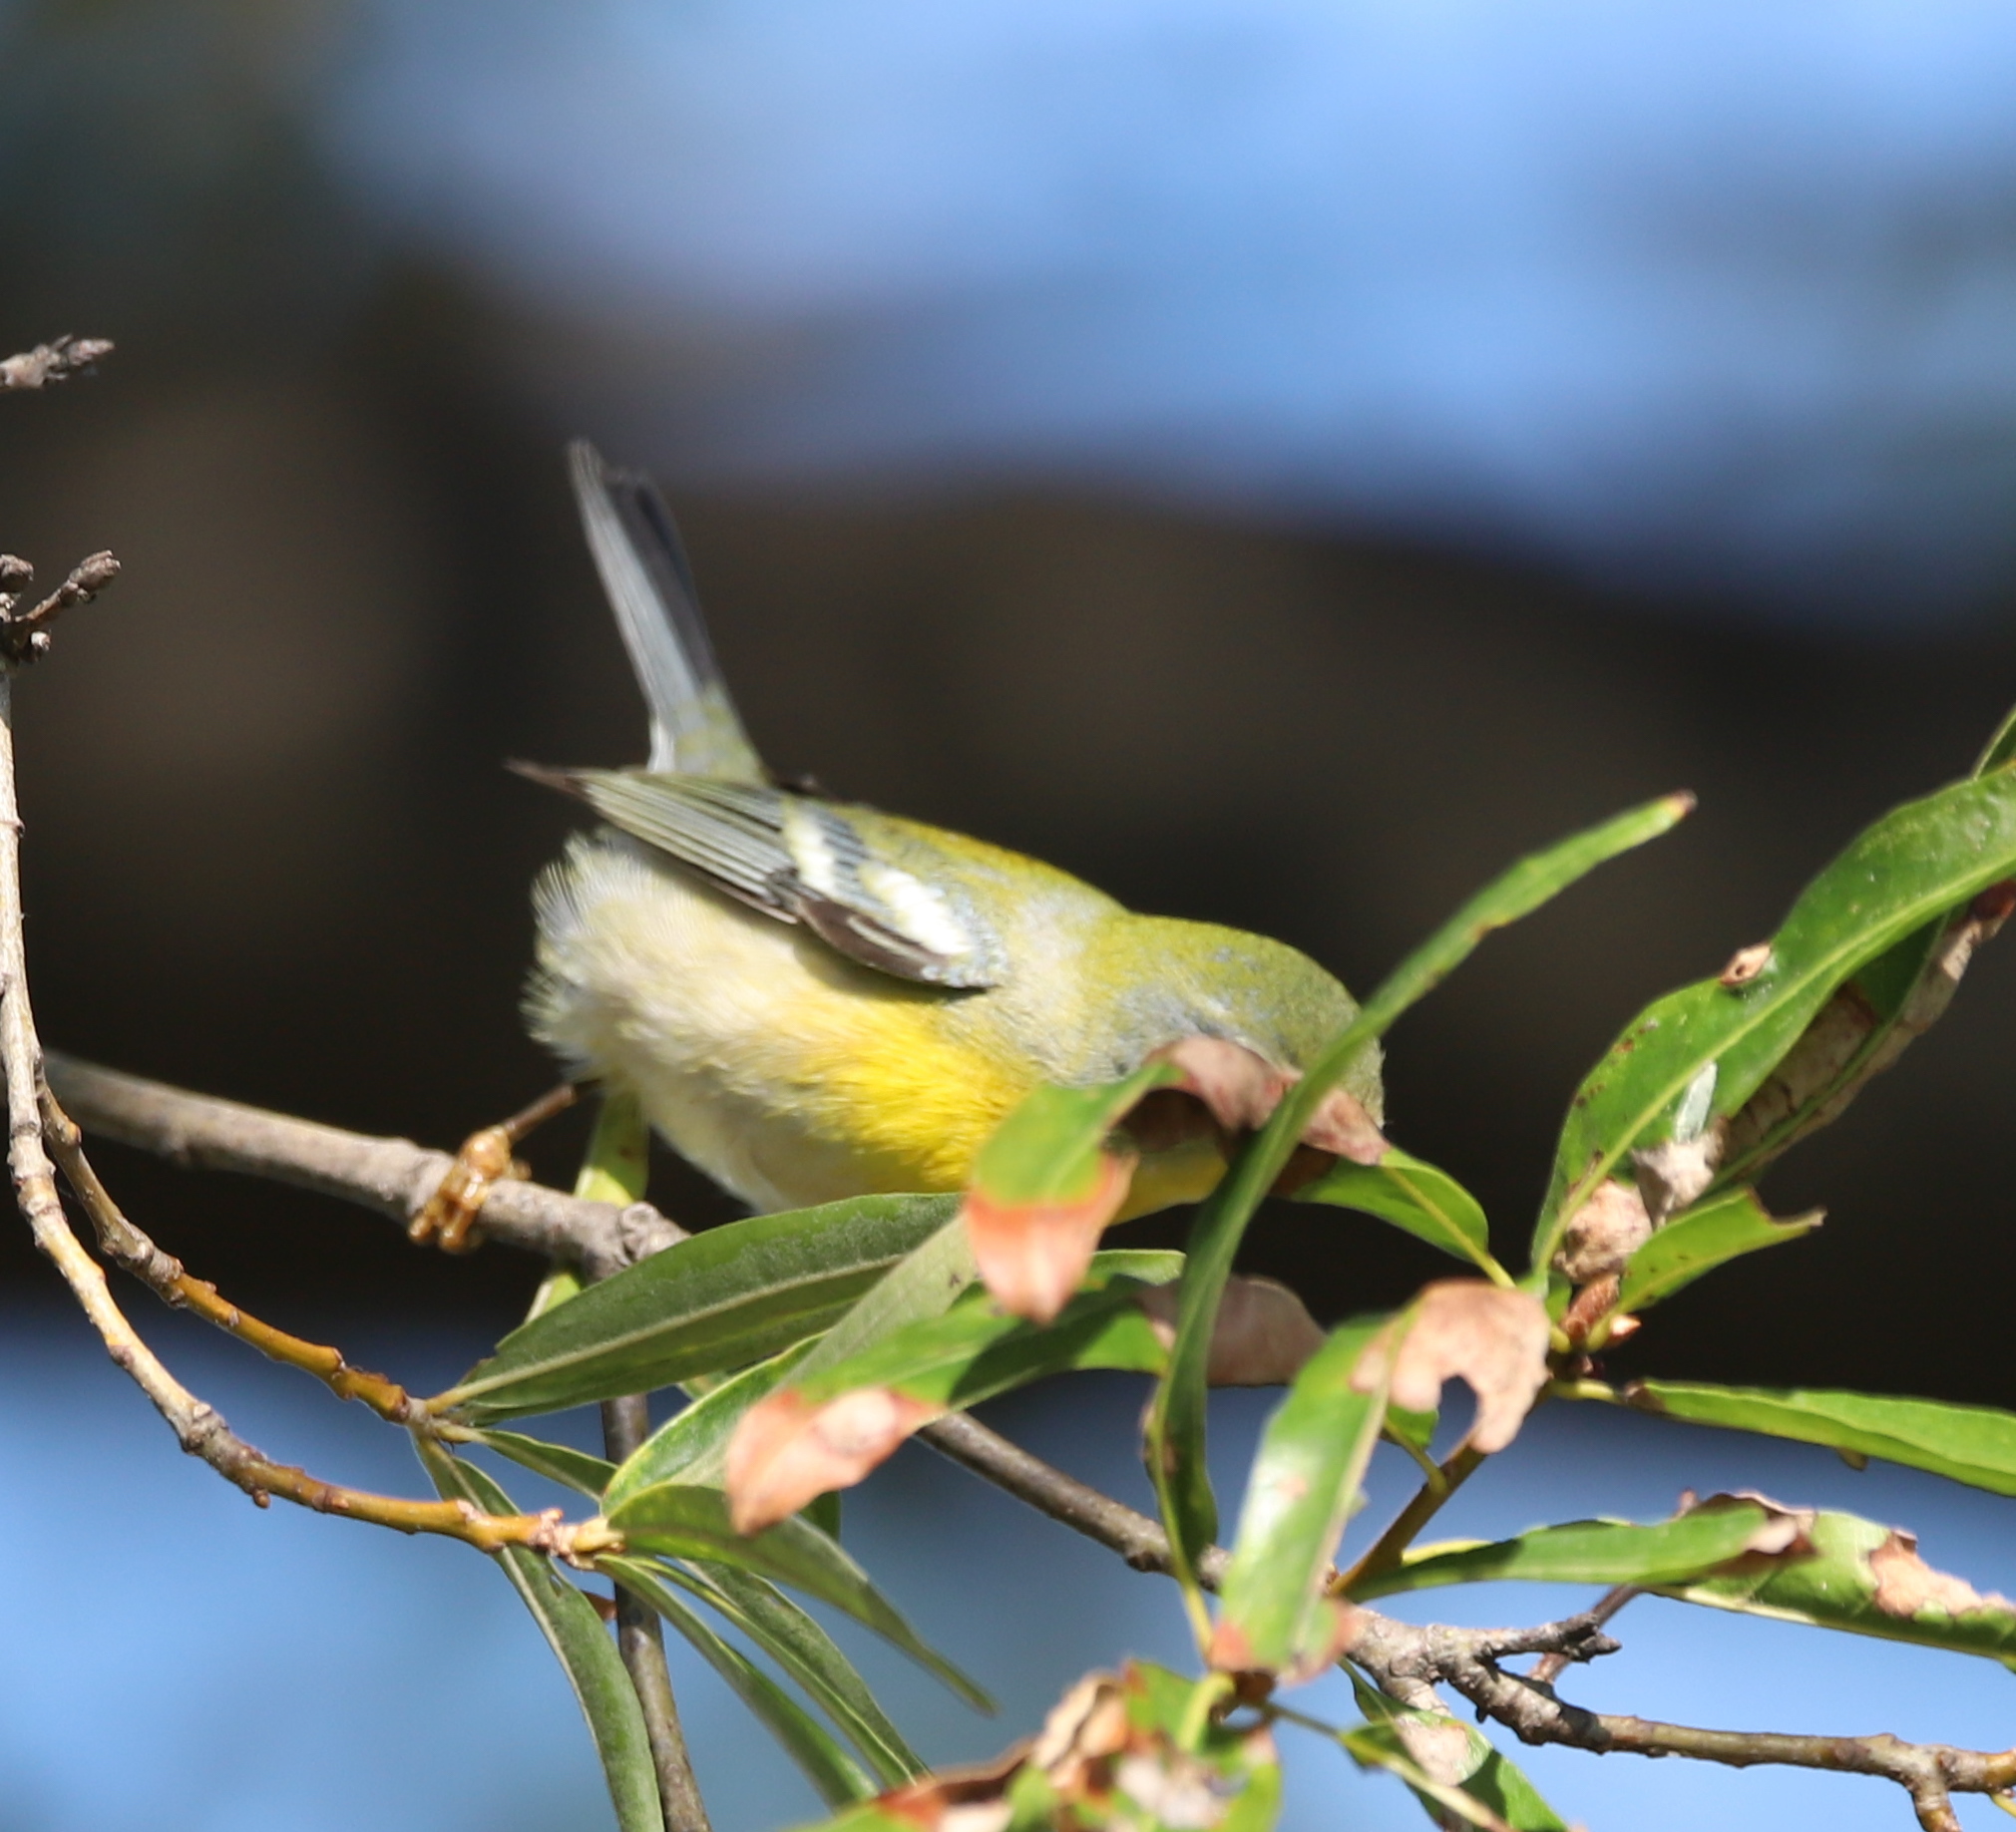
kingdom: Animalia
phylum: Chordata
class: Aves
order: Passeriformes
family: Parulidae
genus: Setophaga
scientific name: Setophaga americana
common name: Northern parula
